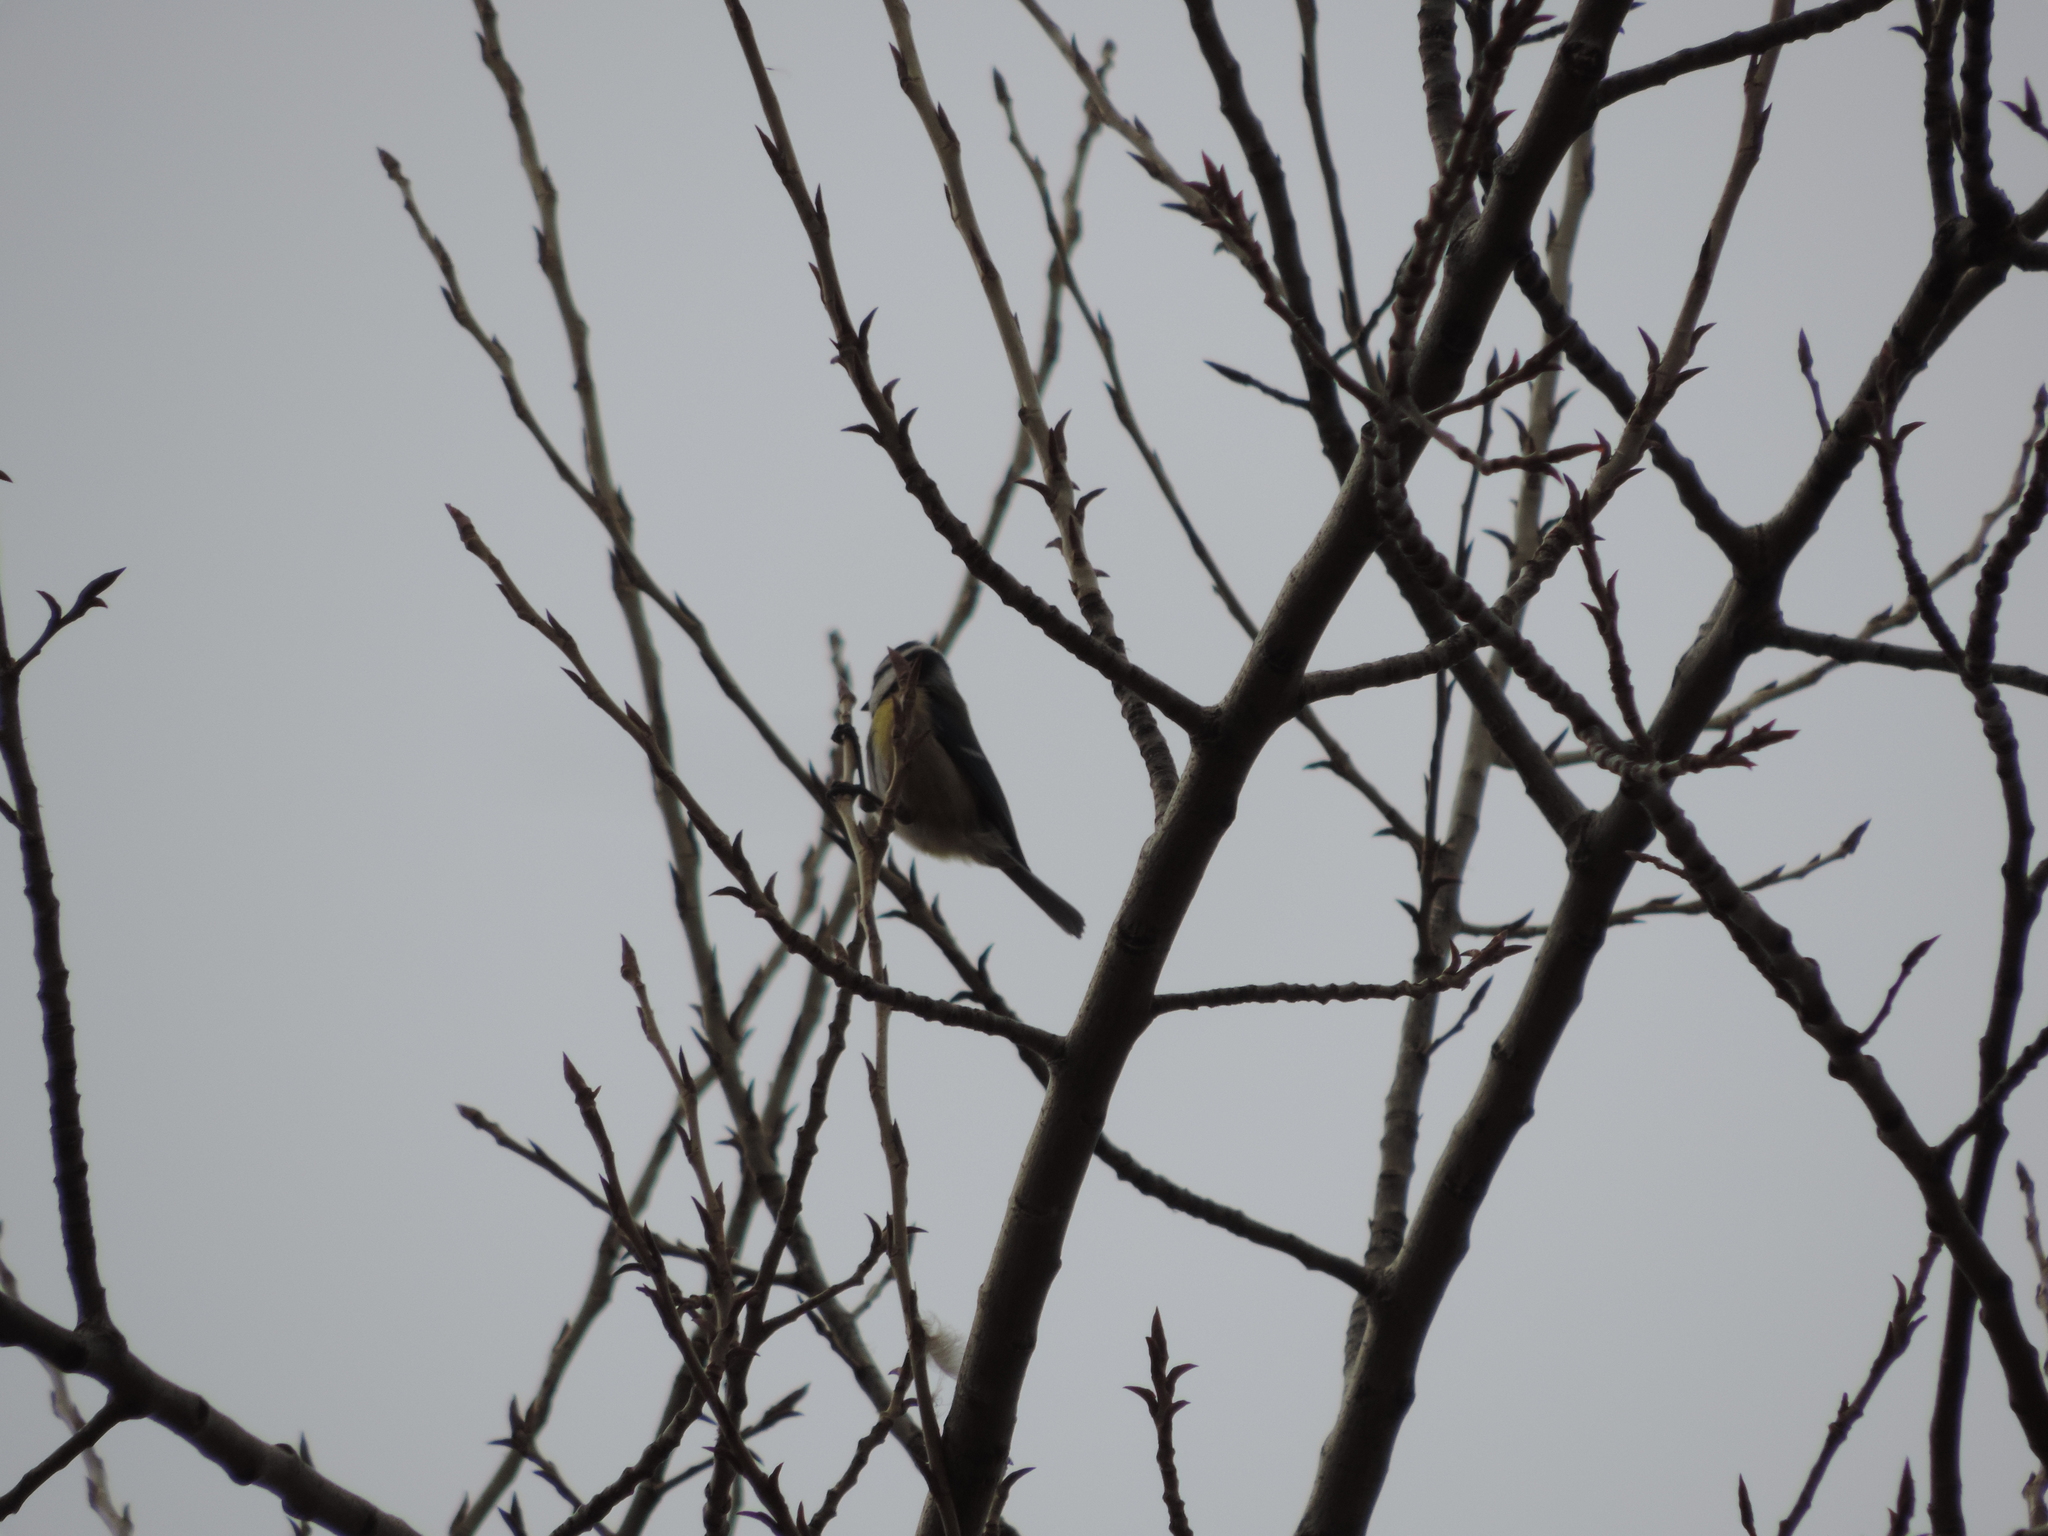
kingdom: Animalia
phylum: Chordata
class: Aves
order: Passeriformes
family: Paridae
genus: Cyanistes
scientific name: Cyanistes caeruleus
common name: Eurasian blue tit
